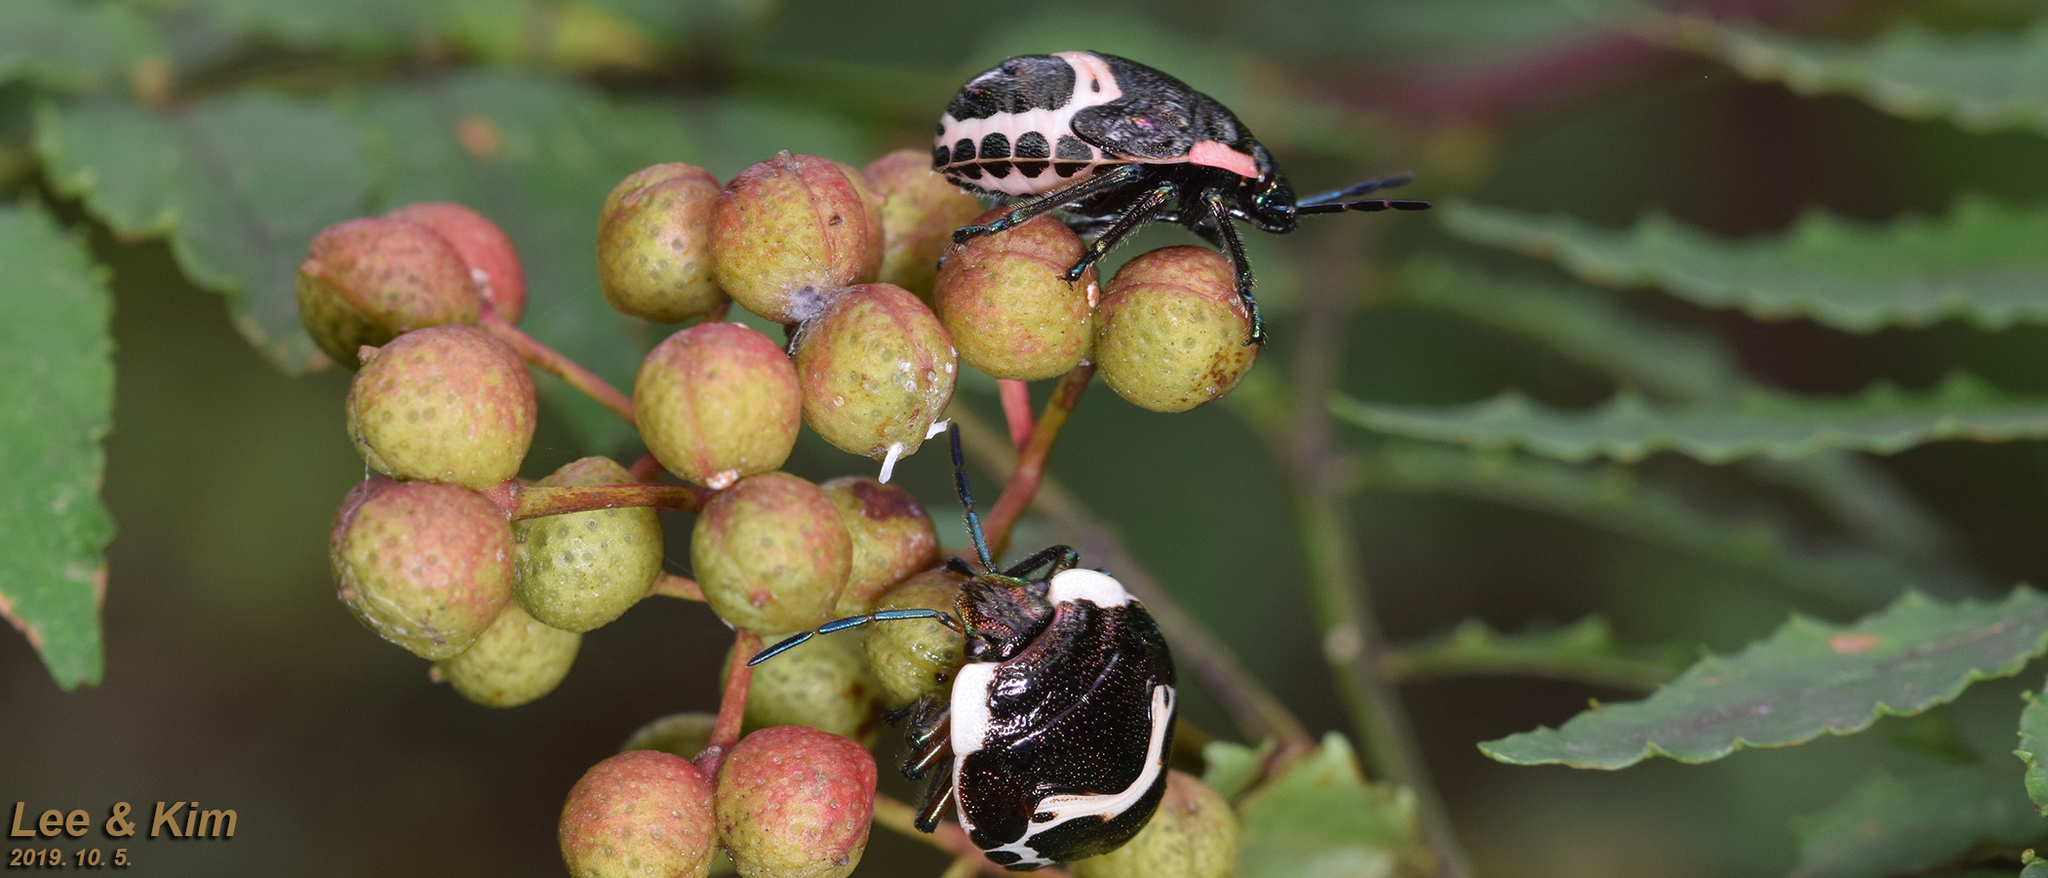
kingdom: Animalia
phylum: Arthropoda
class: Insecta
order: Hemiptera
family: Scutelleridae
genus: Poecilocoris
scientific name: Poecilocoris lewisi
